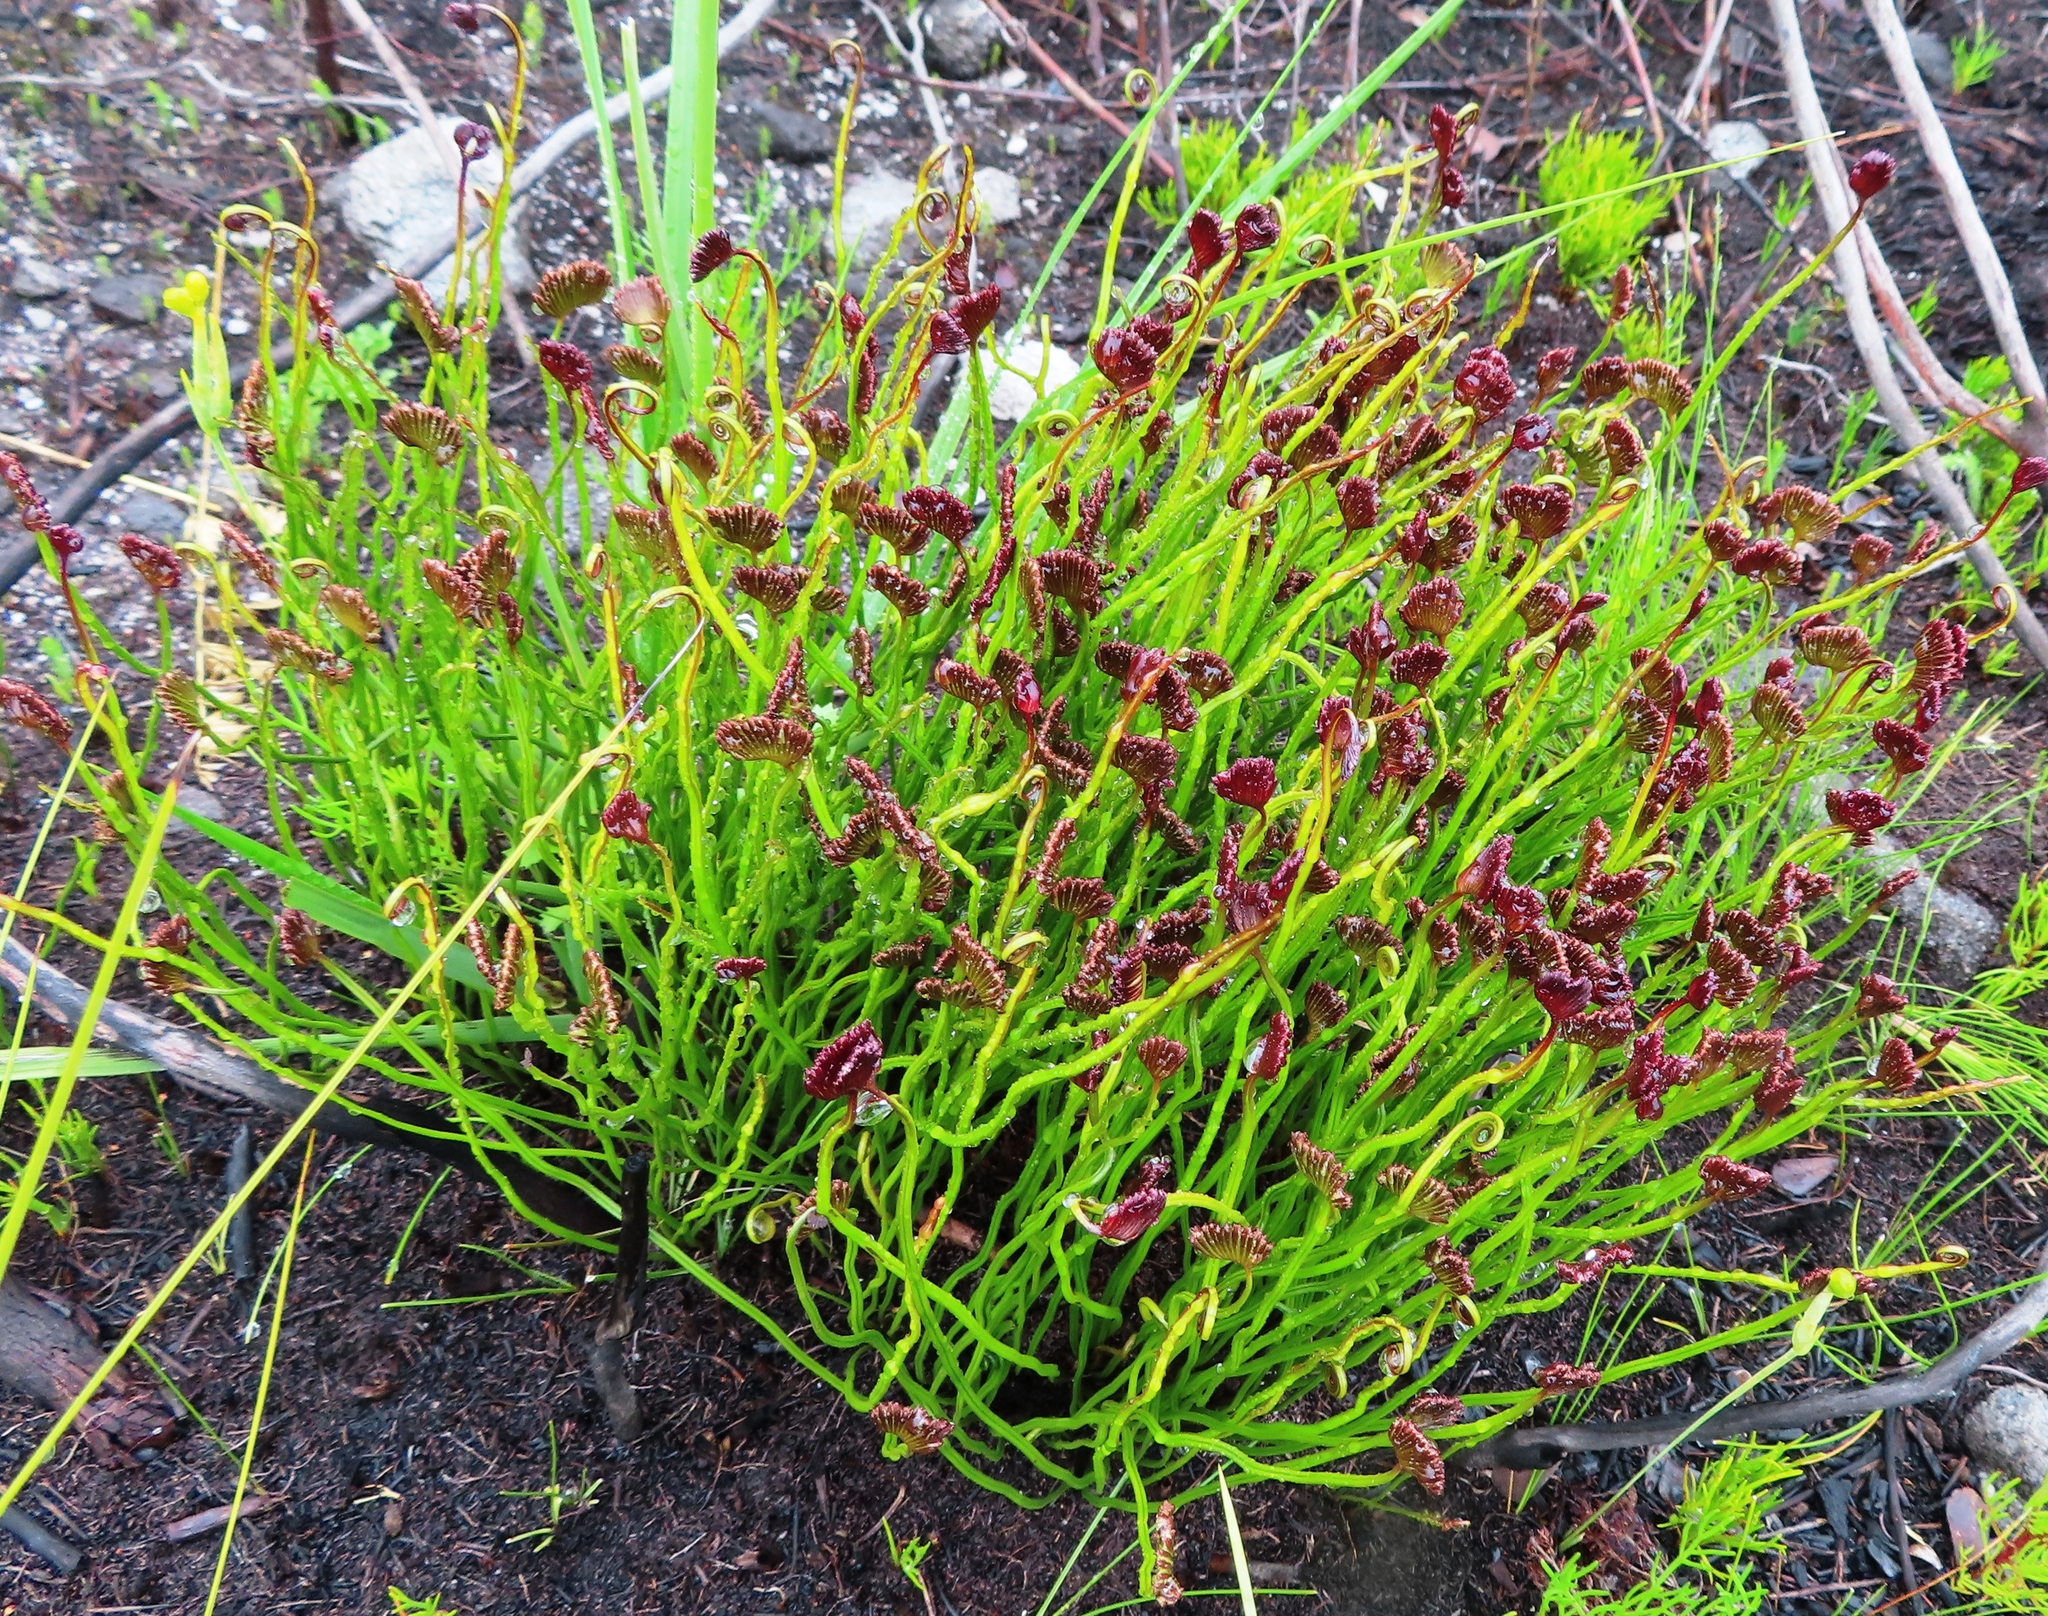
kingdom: Plantae
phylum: Tracheophyta
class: Polypodiopsida
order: Schizaeales
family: Schizaeaceae
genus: Schizaea
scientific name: Schizaea pectinata
